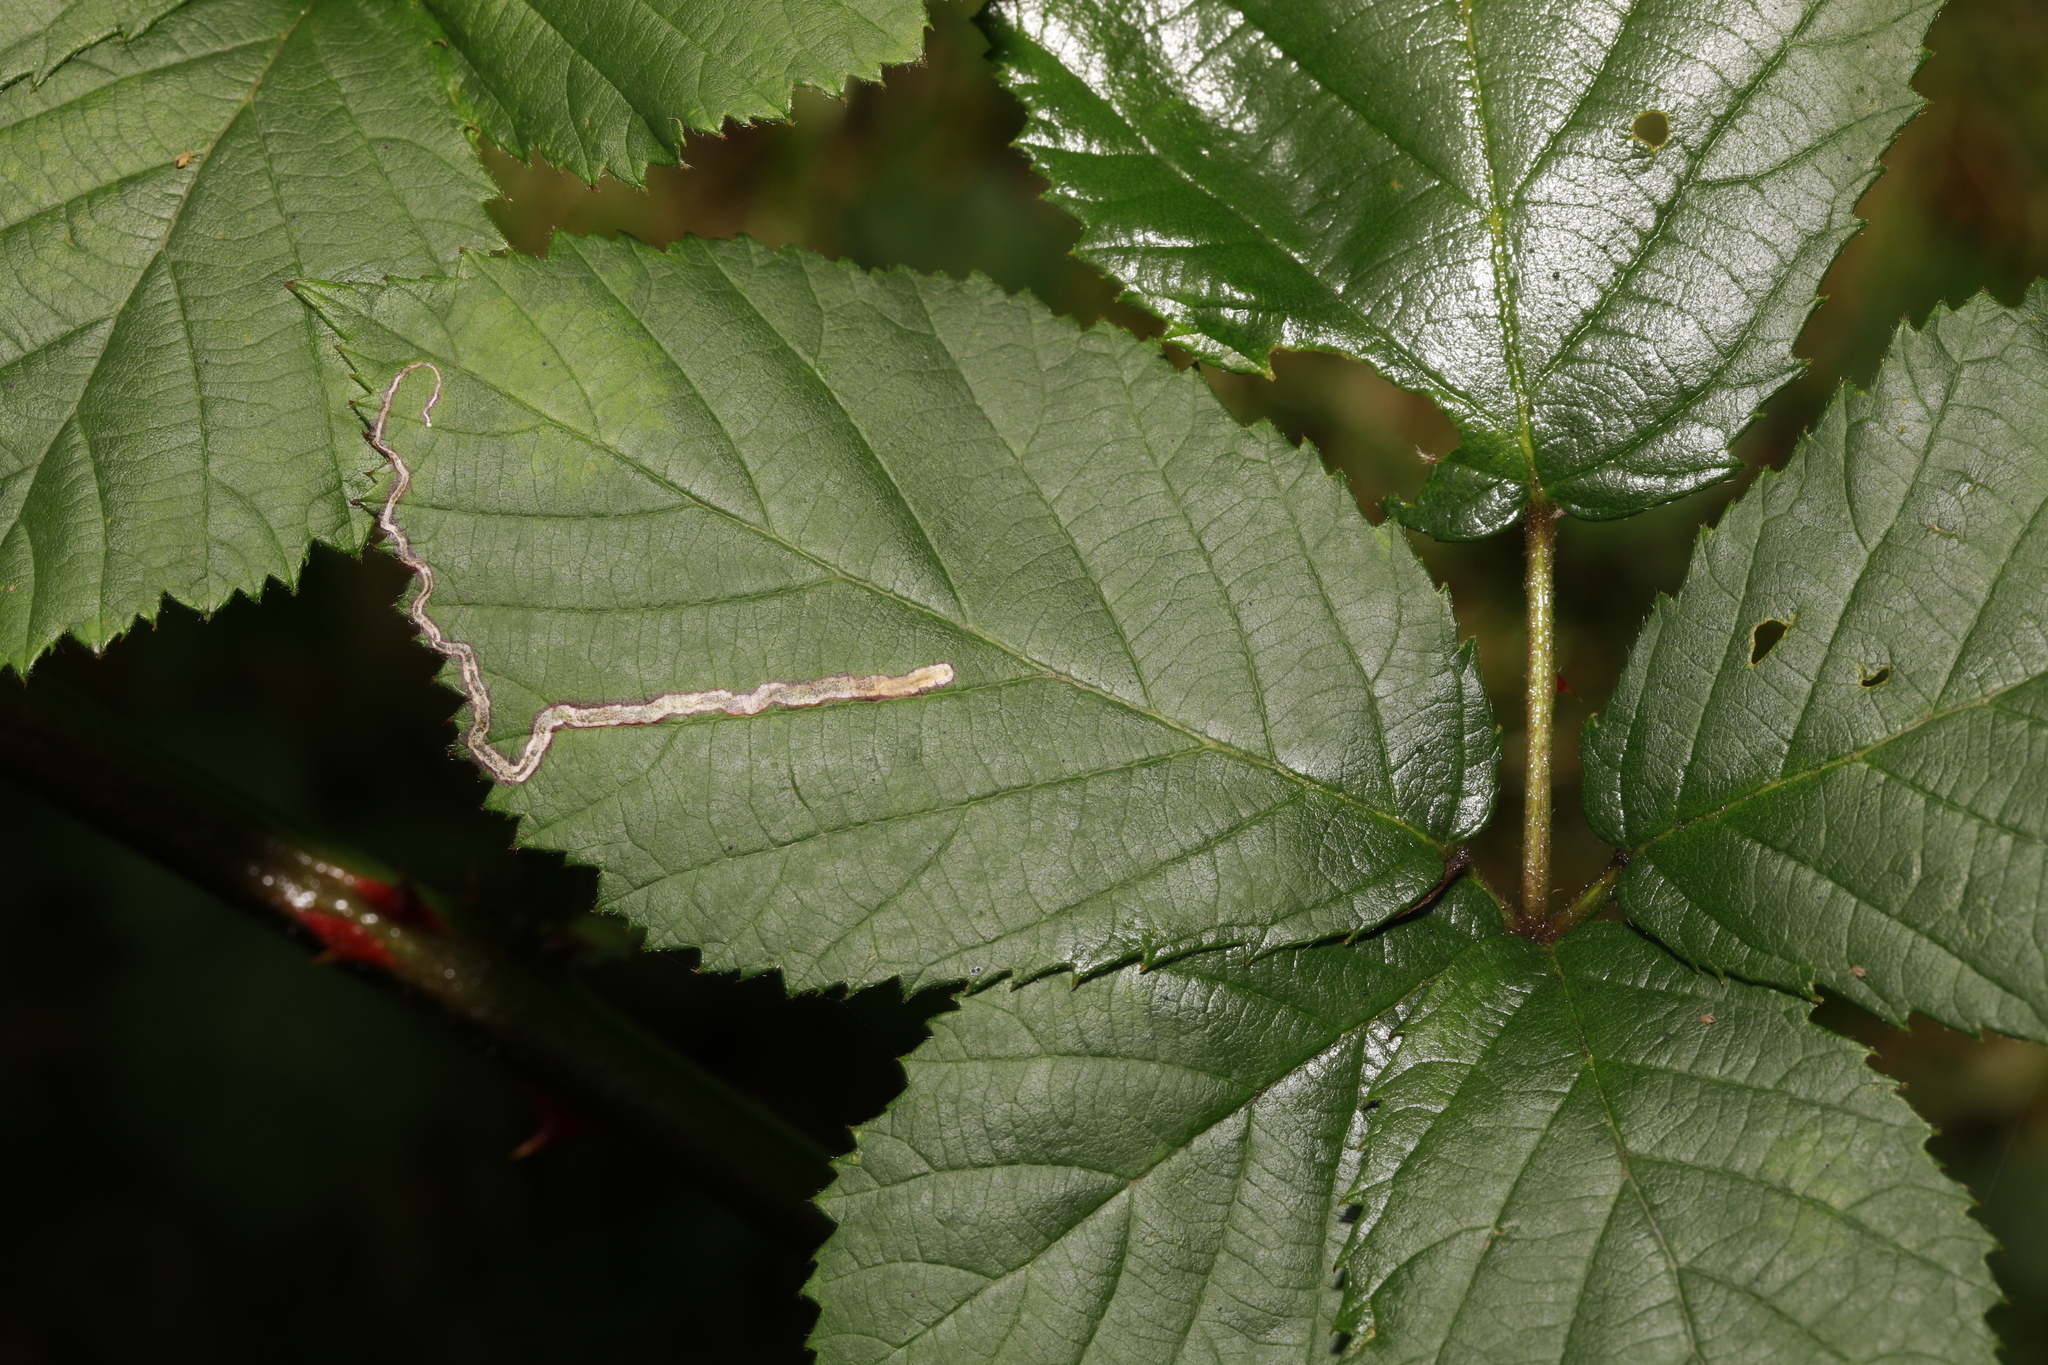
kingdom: Animalia
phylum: Arthropoda
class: Insecta
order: Lepidoptera
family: Nepticulidae
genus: Stigmella
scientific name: Stigmella aurella
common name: Golden pigmy
